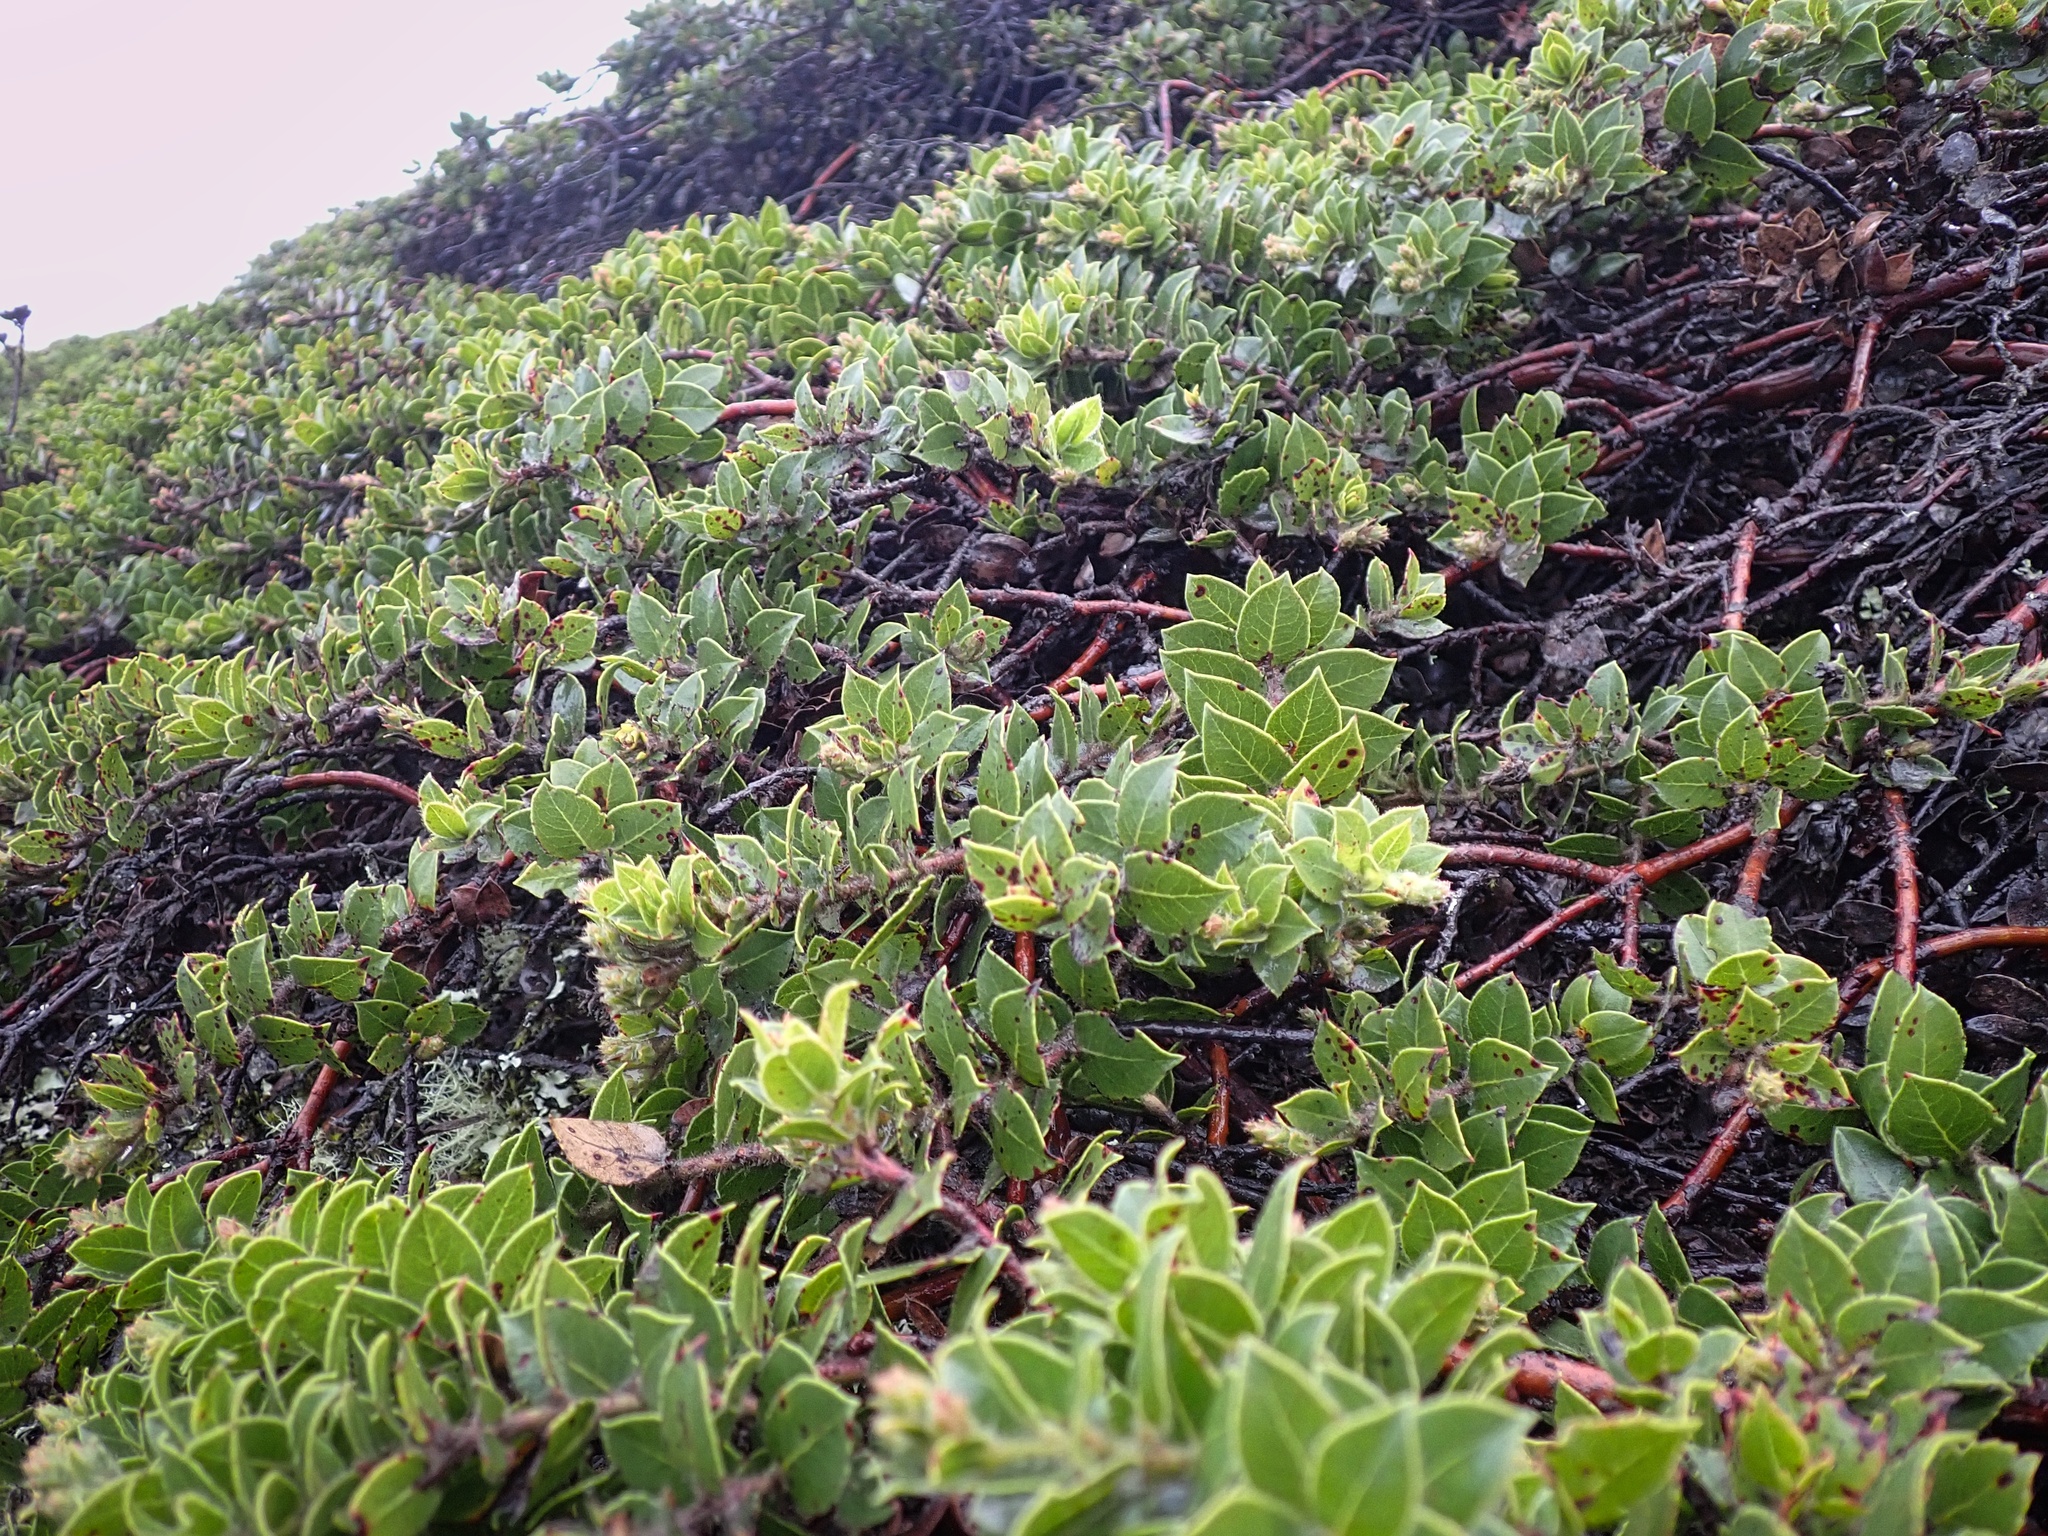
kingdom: Plantae
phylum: Tracheophyta
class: Magnoliopsida
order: Ericales
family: Ericaceae
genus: Arctostaphylos
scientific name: Arctostaphylos imbricata
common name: San bruno mountain manzanita
